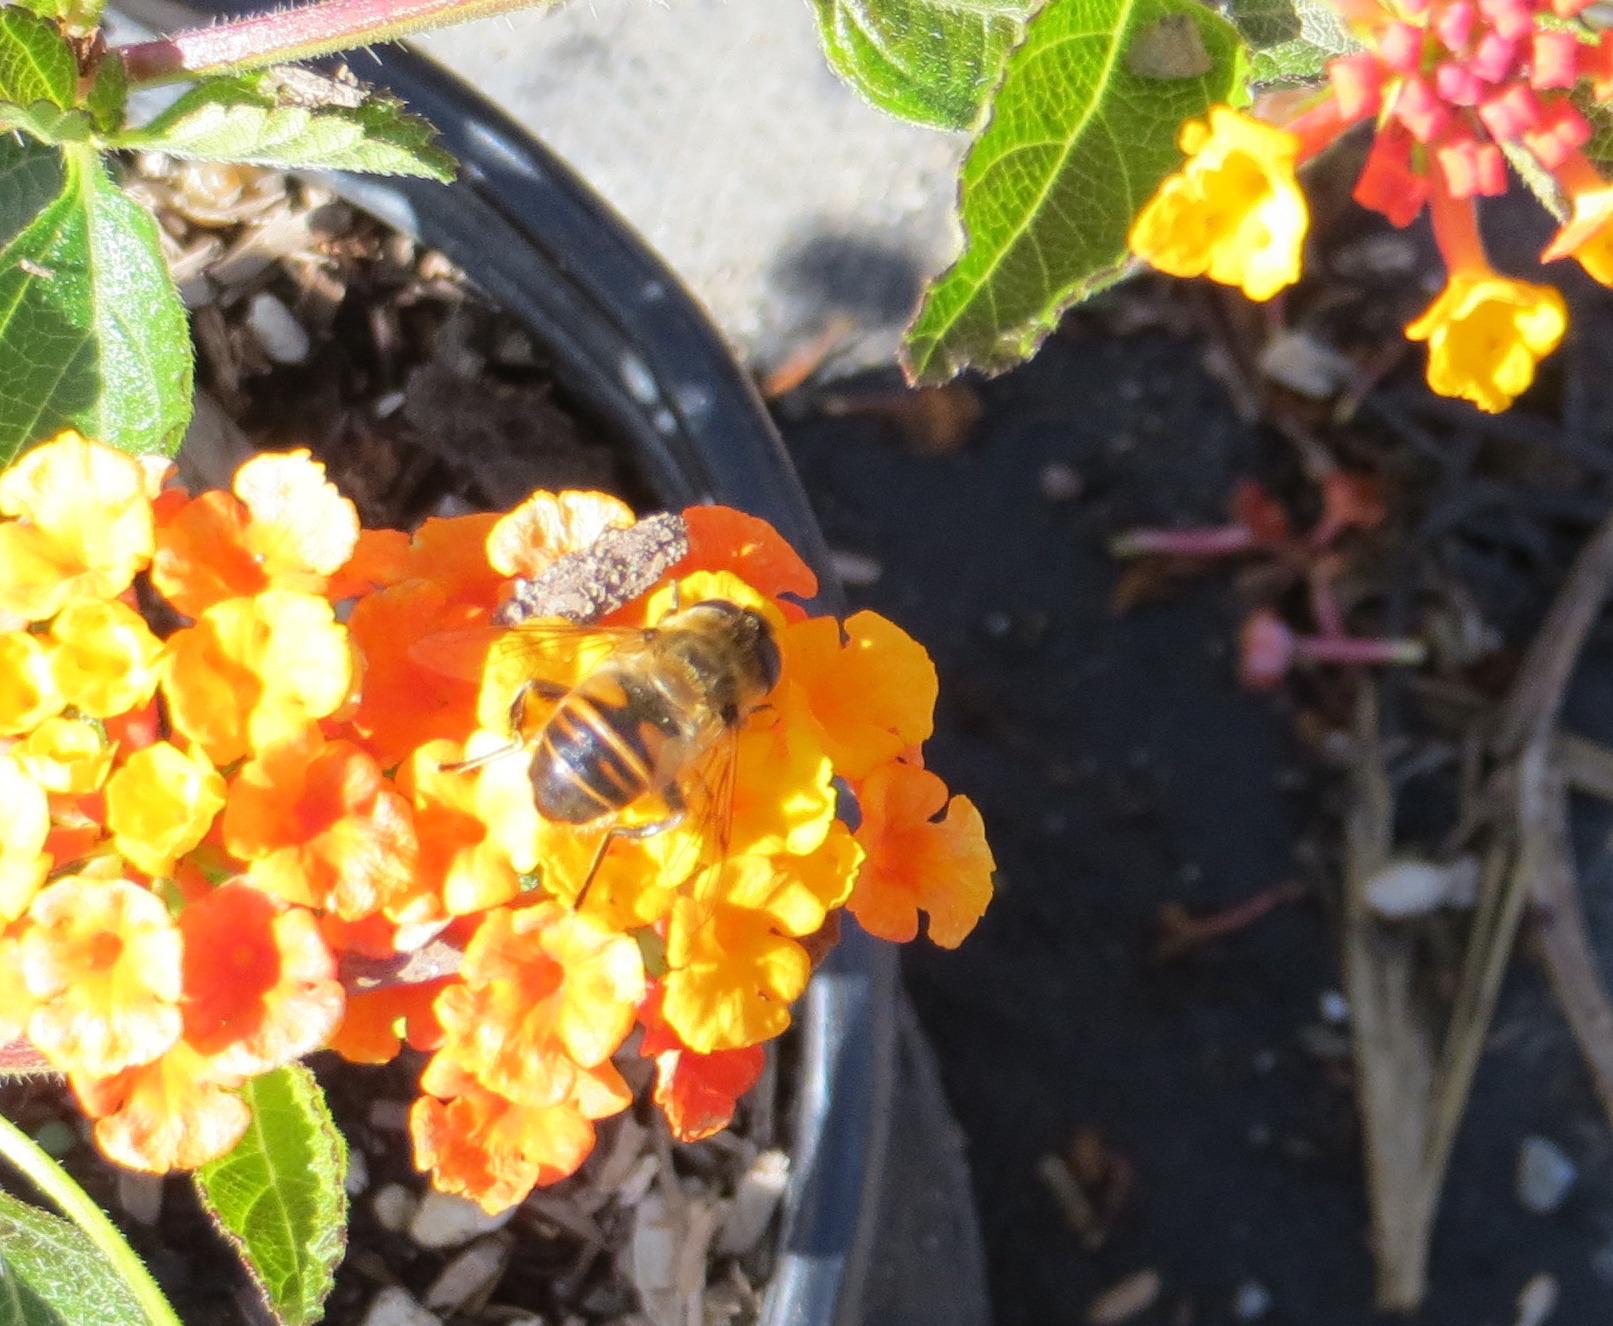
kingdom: Animalia
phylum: Arthropoda
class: Insecta
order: Diptera
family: Syrphidae
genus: Eristalis
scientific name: Eristalis tenax
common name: Drone fly
